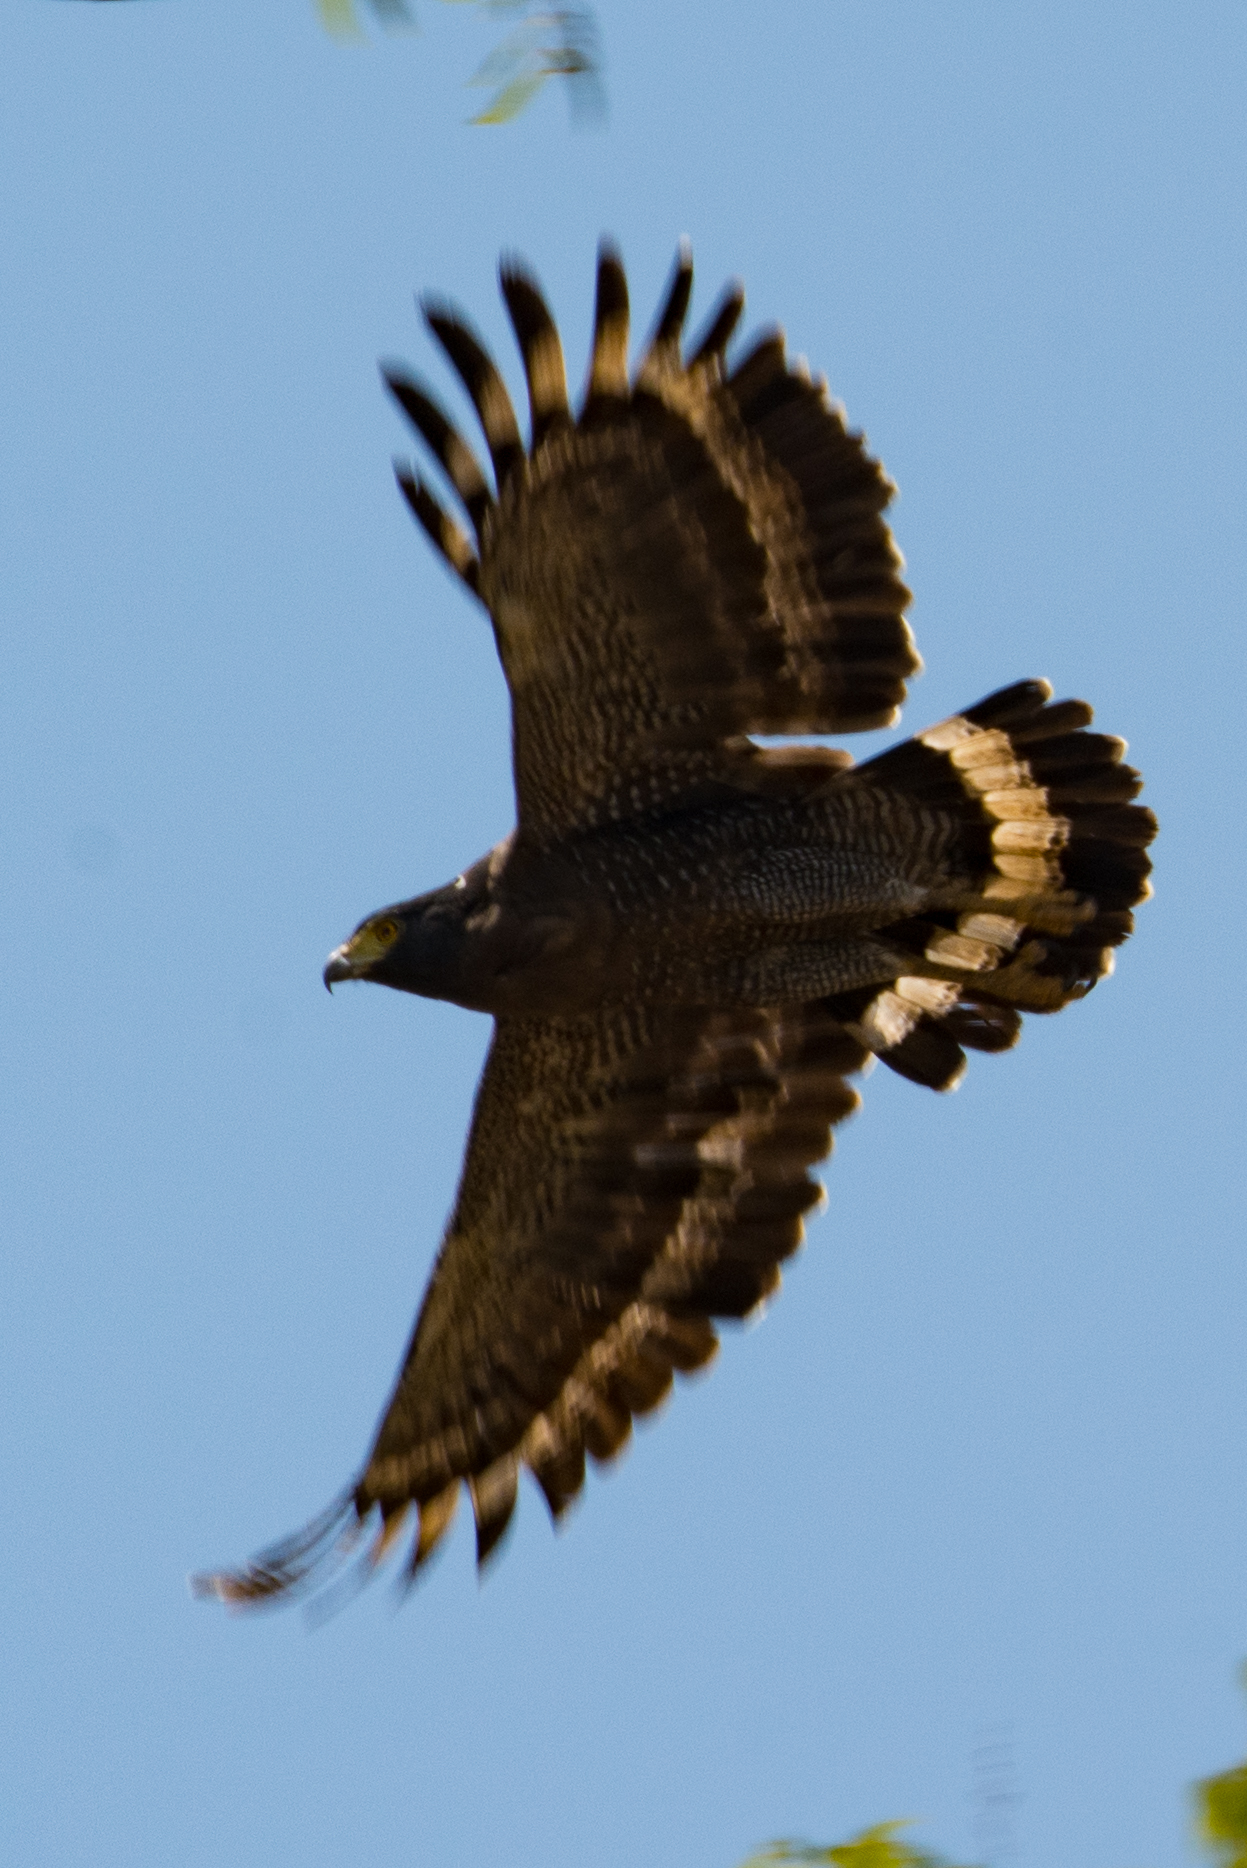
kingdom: Animalia
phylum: Chordata
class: Aves
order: Accipitriformes
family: Accipitridae
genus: Spilornis
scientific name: Spilornis cheela
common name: Crested serpent eagle
